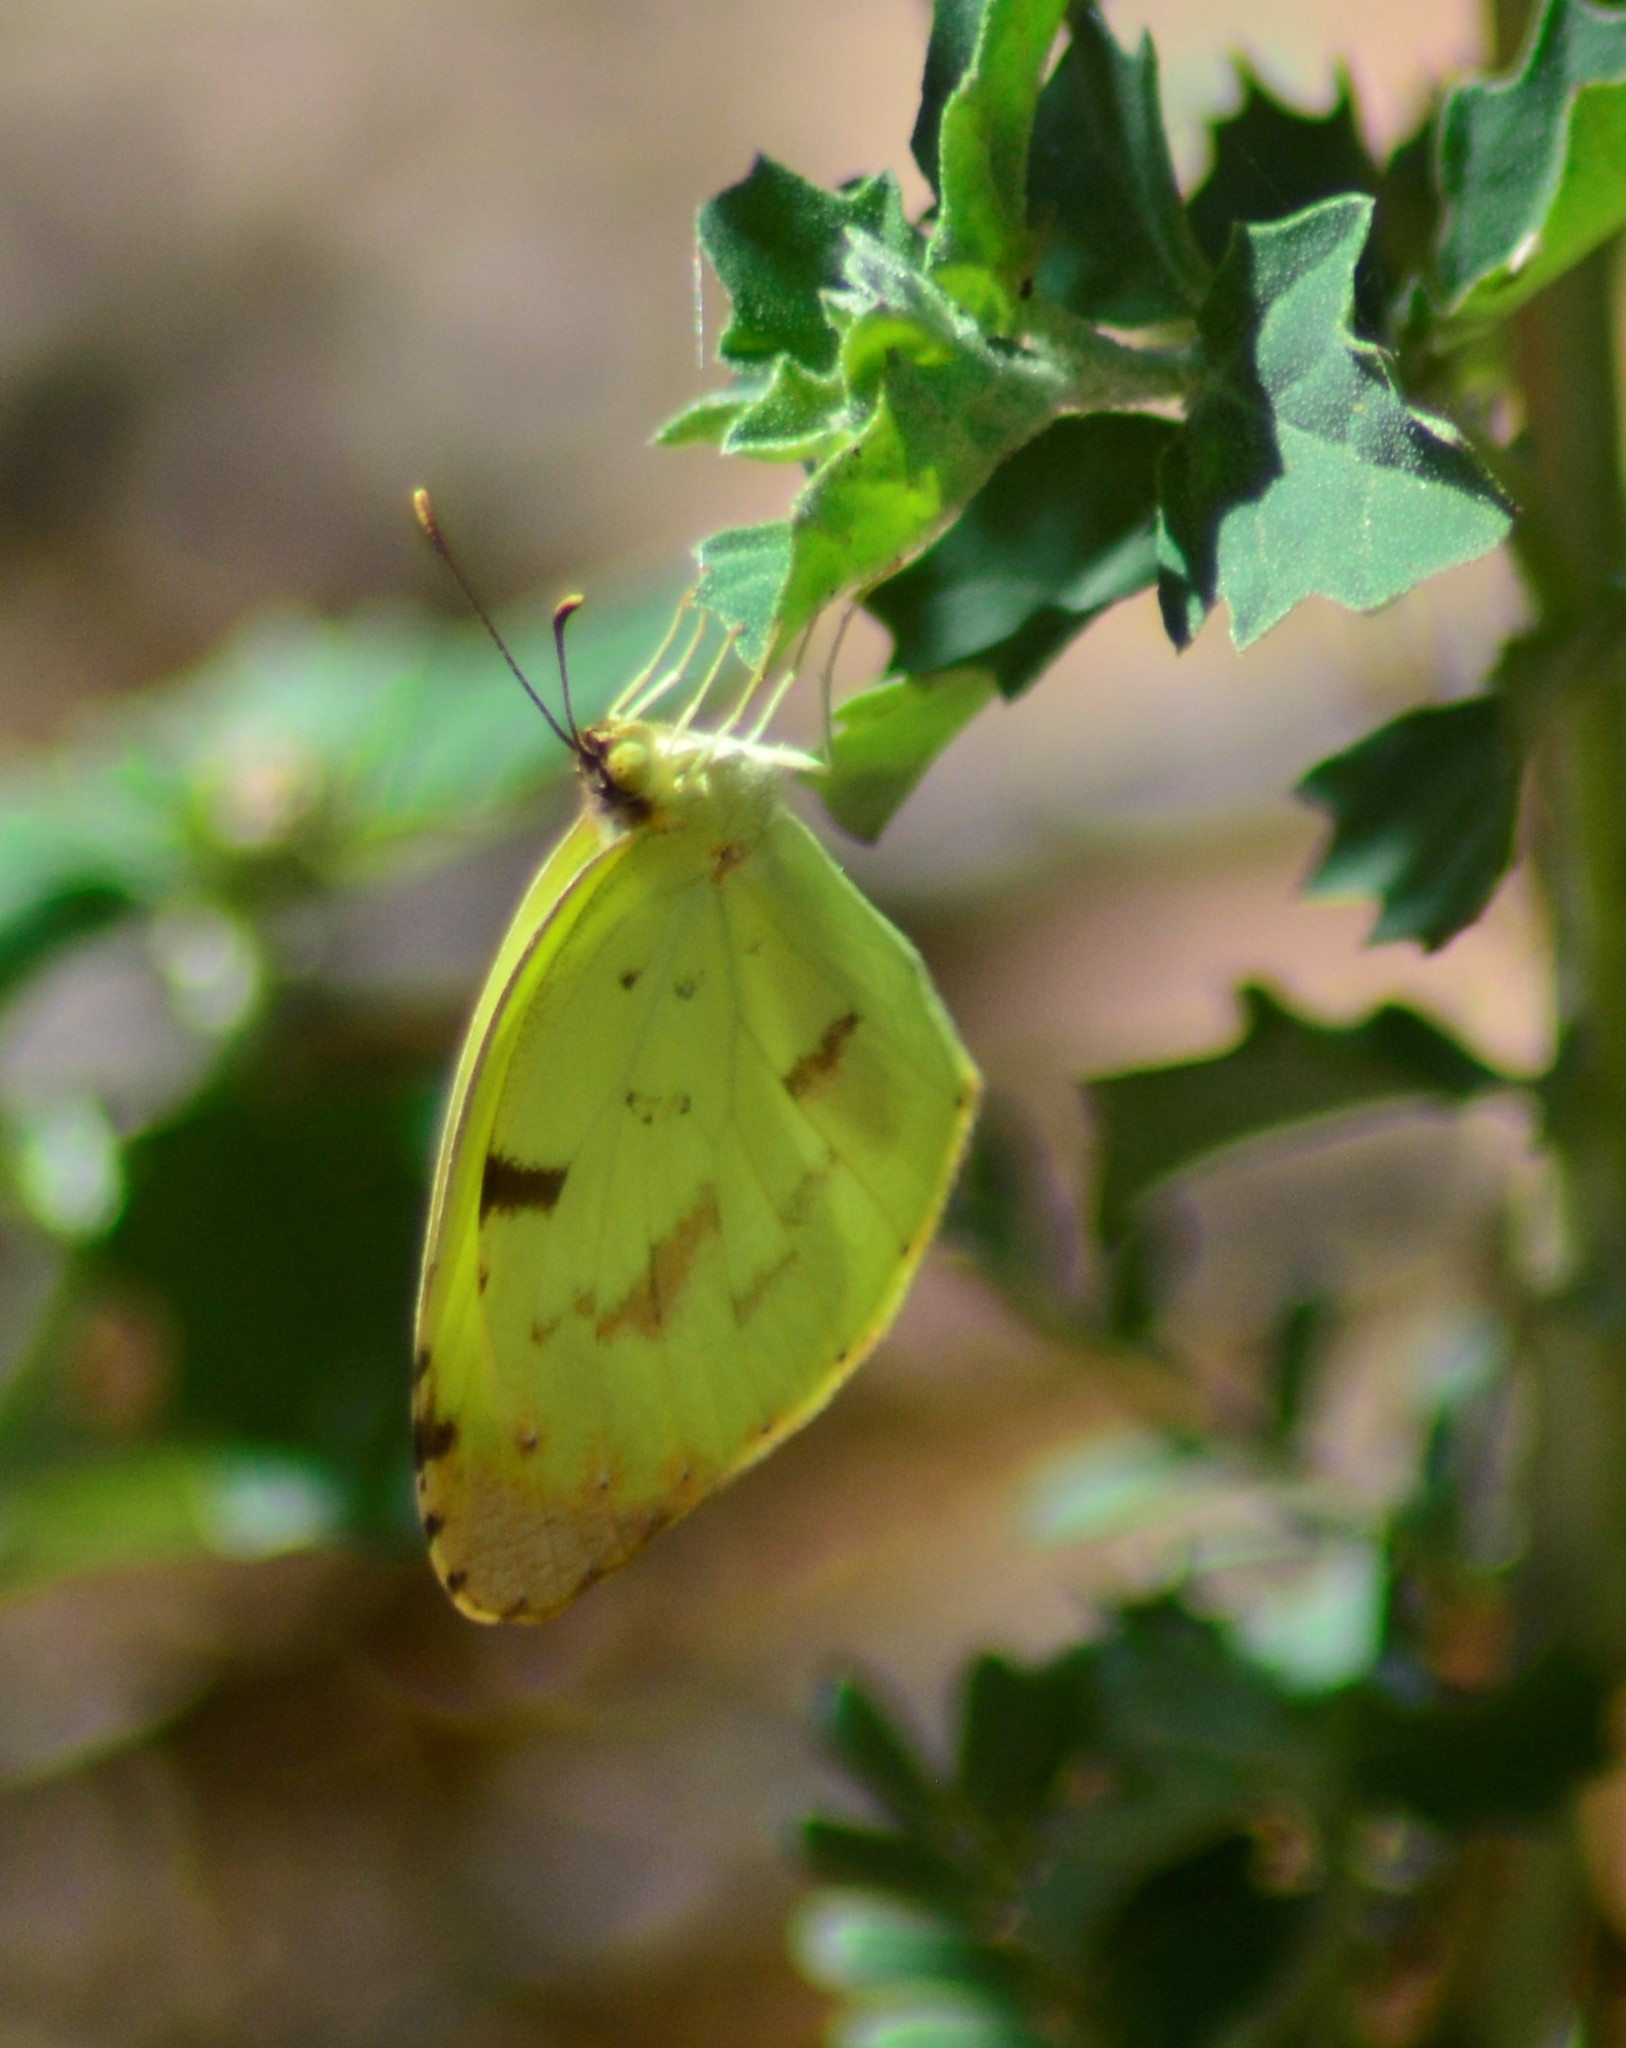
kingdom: Animalia
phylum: Arthropoda
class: Insecta
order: Lepidoptera
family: Pieridae
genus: Teriocolias
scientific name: Teriocolias
